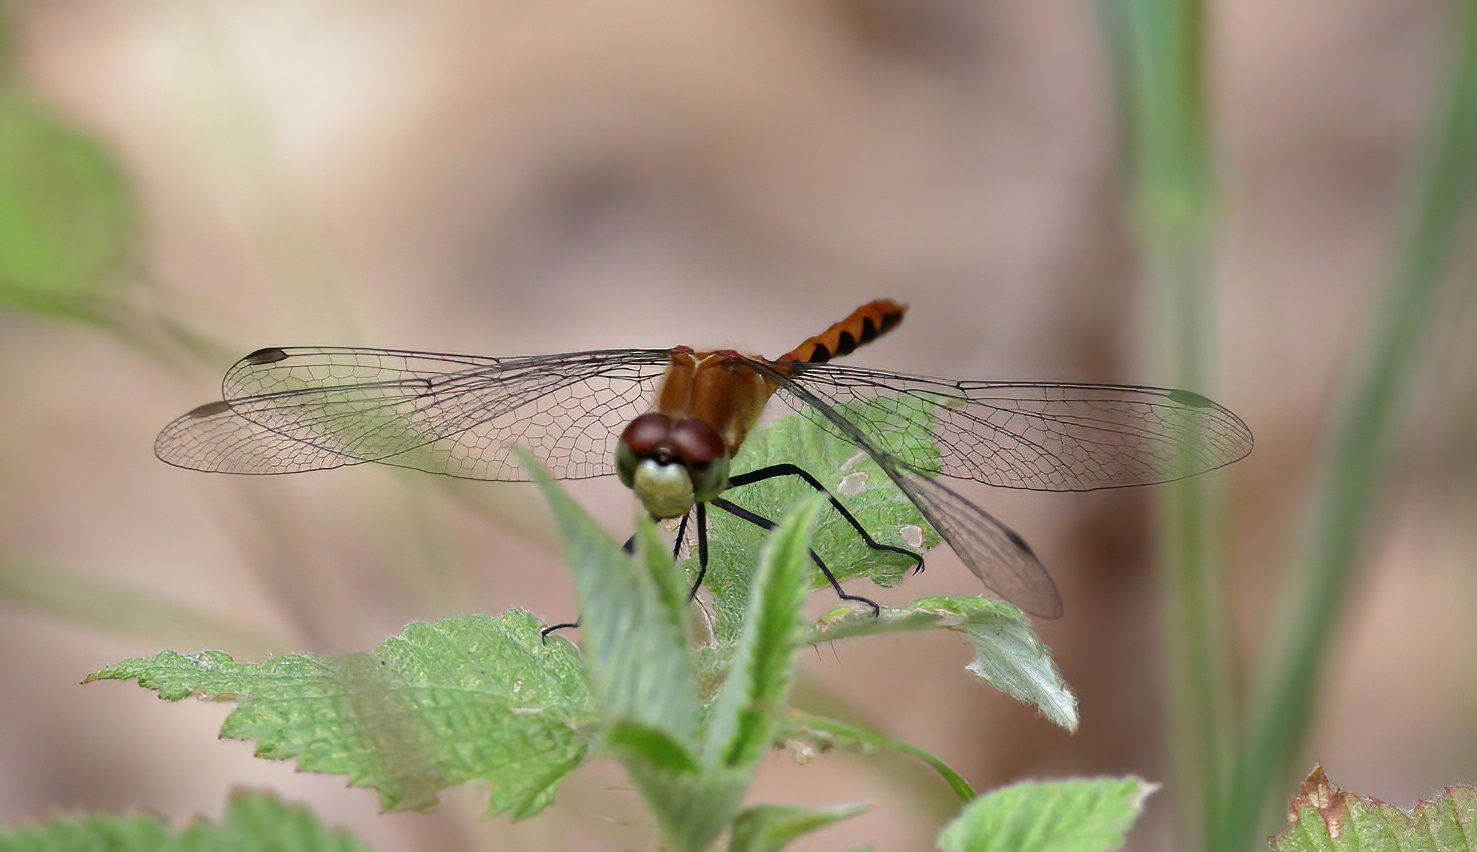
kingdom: Animalia
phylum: Arthropoda
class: Insecta
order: Odonata
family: Libellulidae
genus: Sympetrum
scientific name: Sympetrum obtrusum
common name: White-faced meadowhawk
